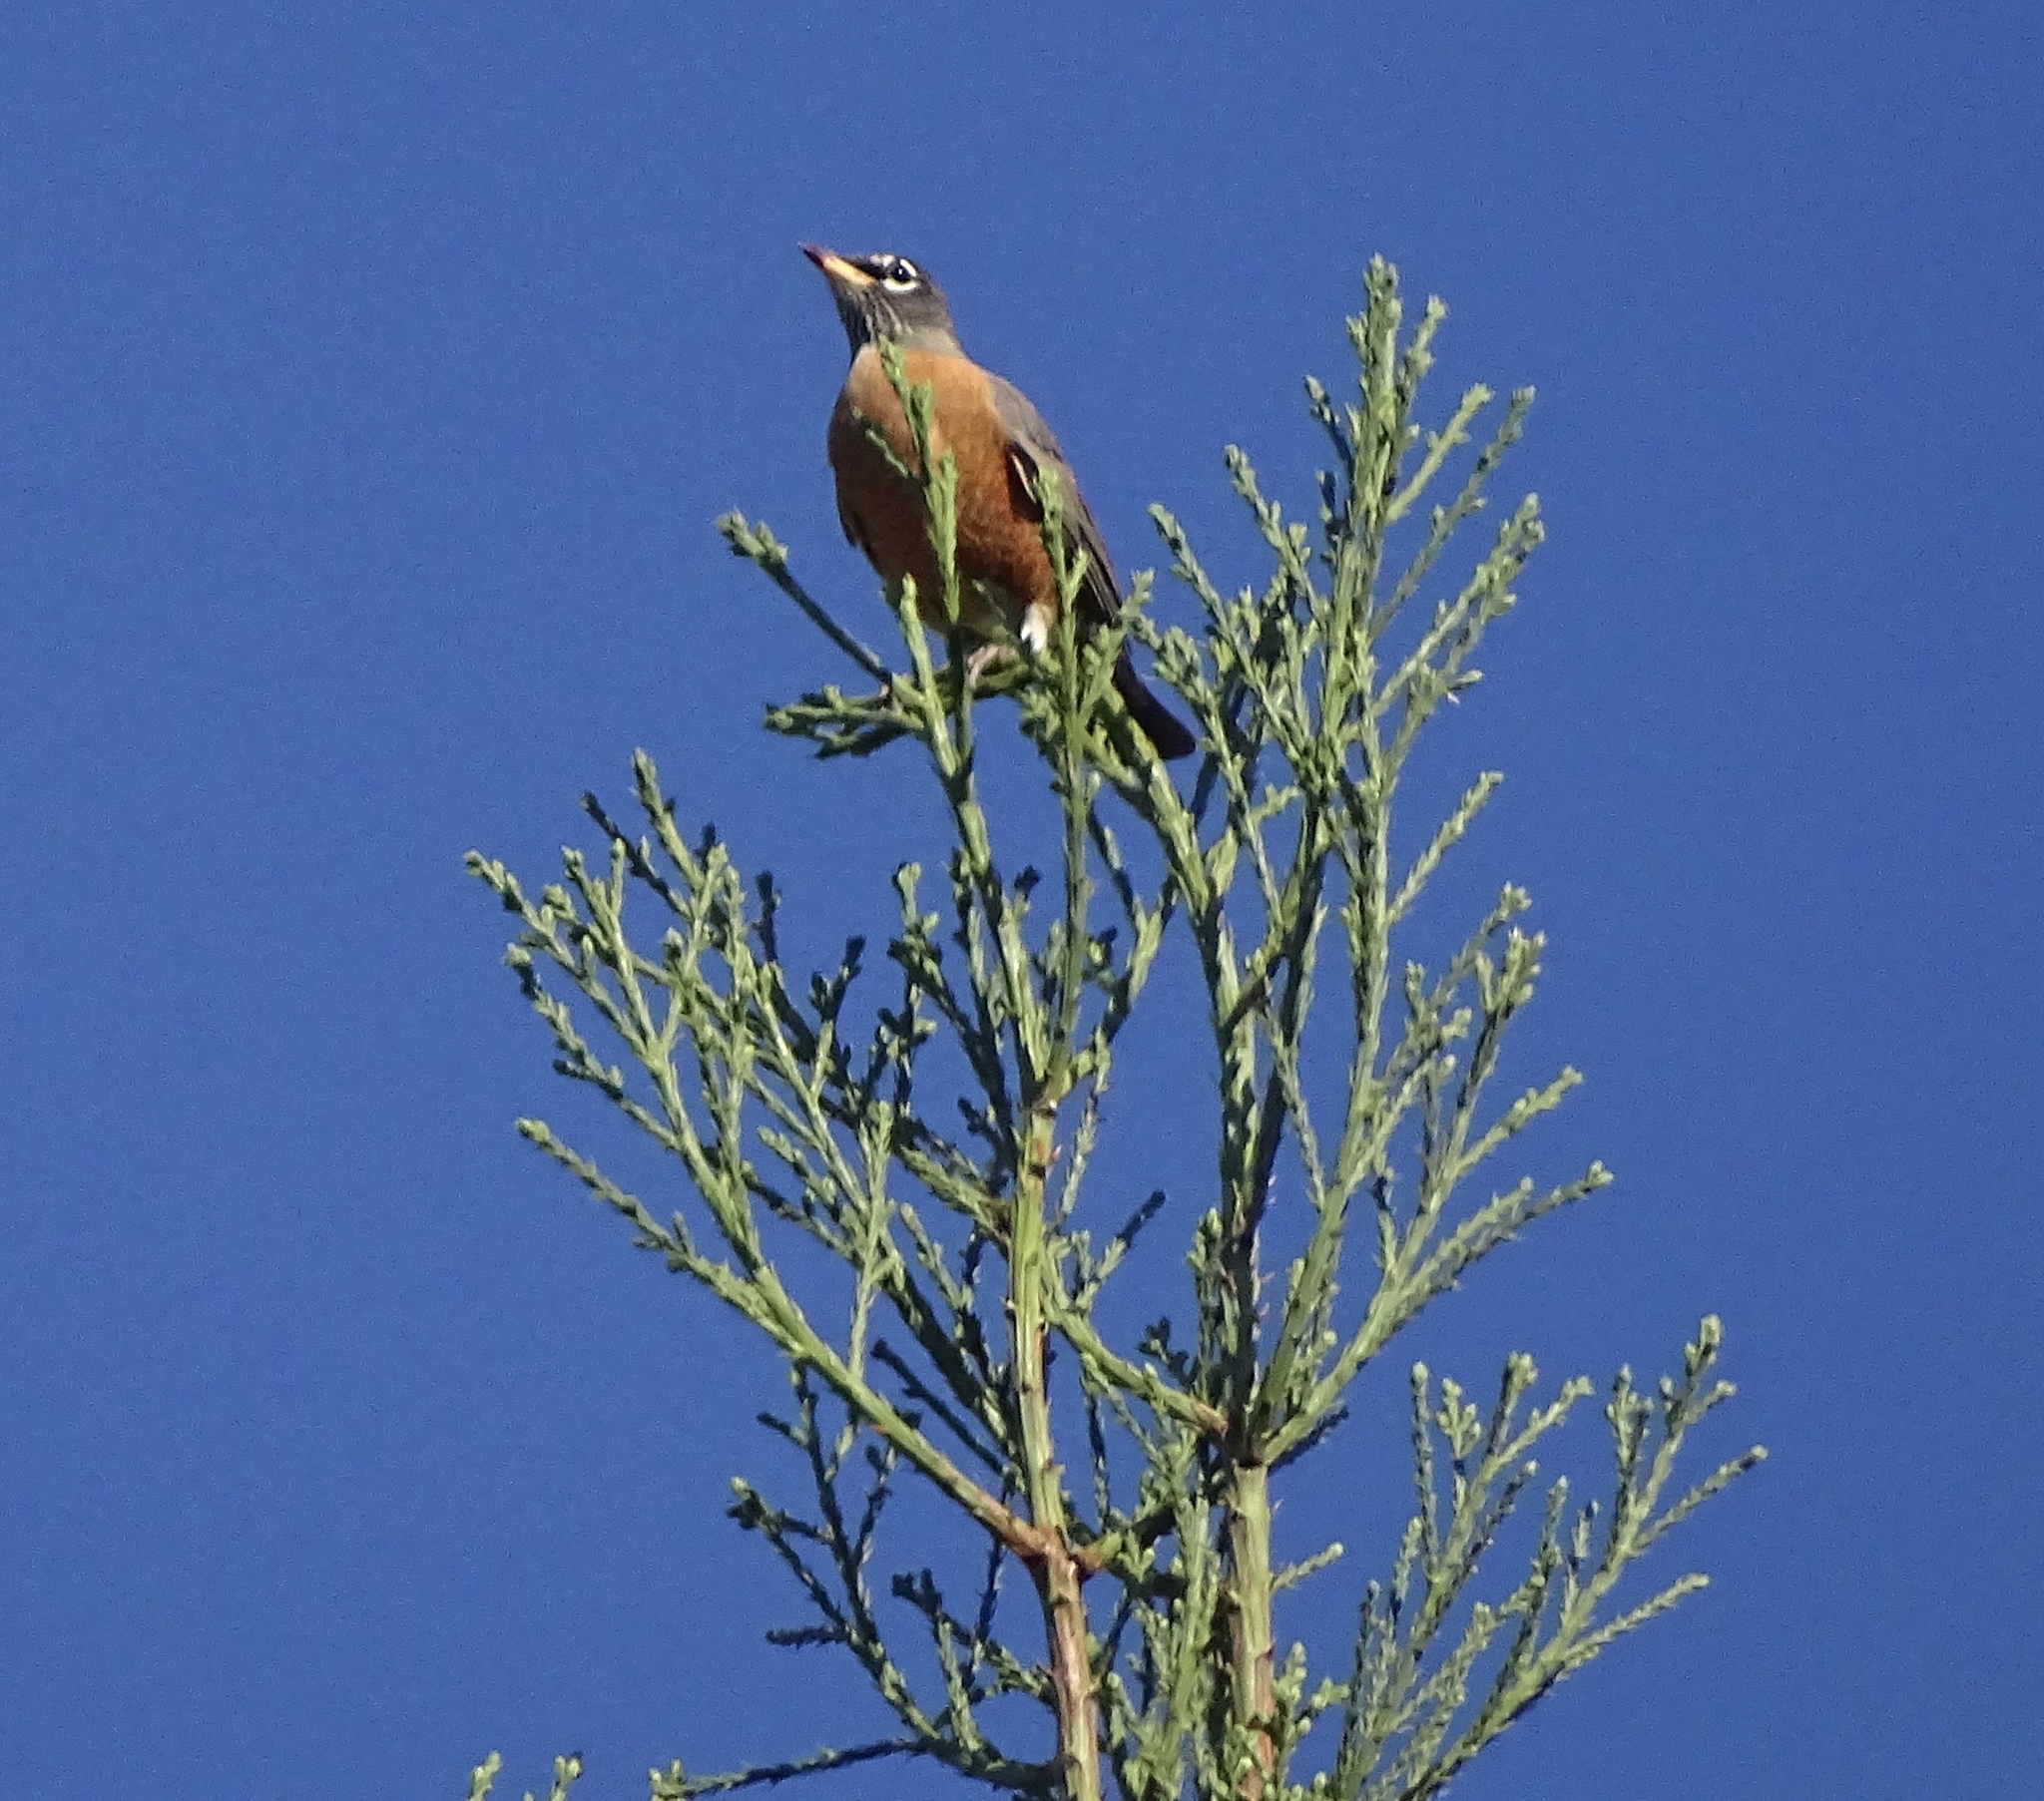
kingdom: Animalia
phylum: Chordata
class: Aves
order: Passeriformes
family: Turdidae
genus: Turdus
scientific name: Turdus migratorius
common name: American robin
